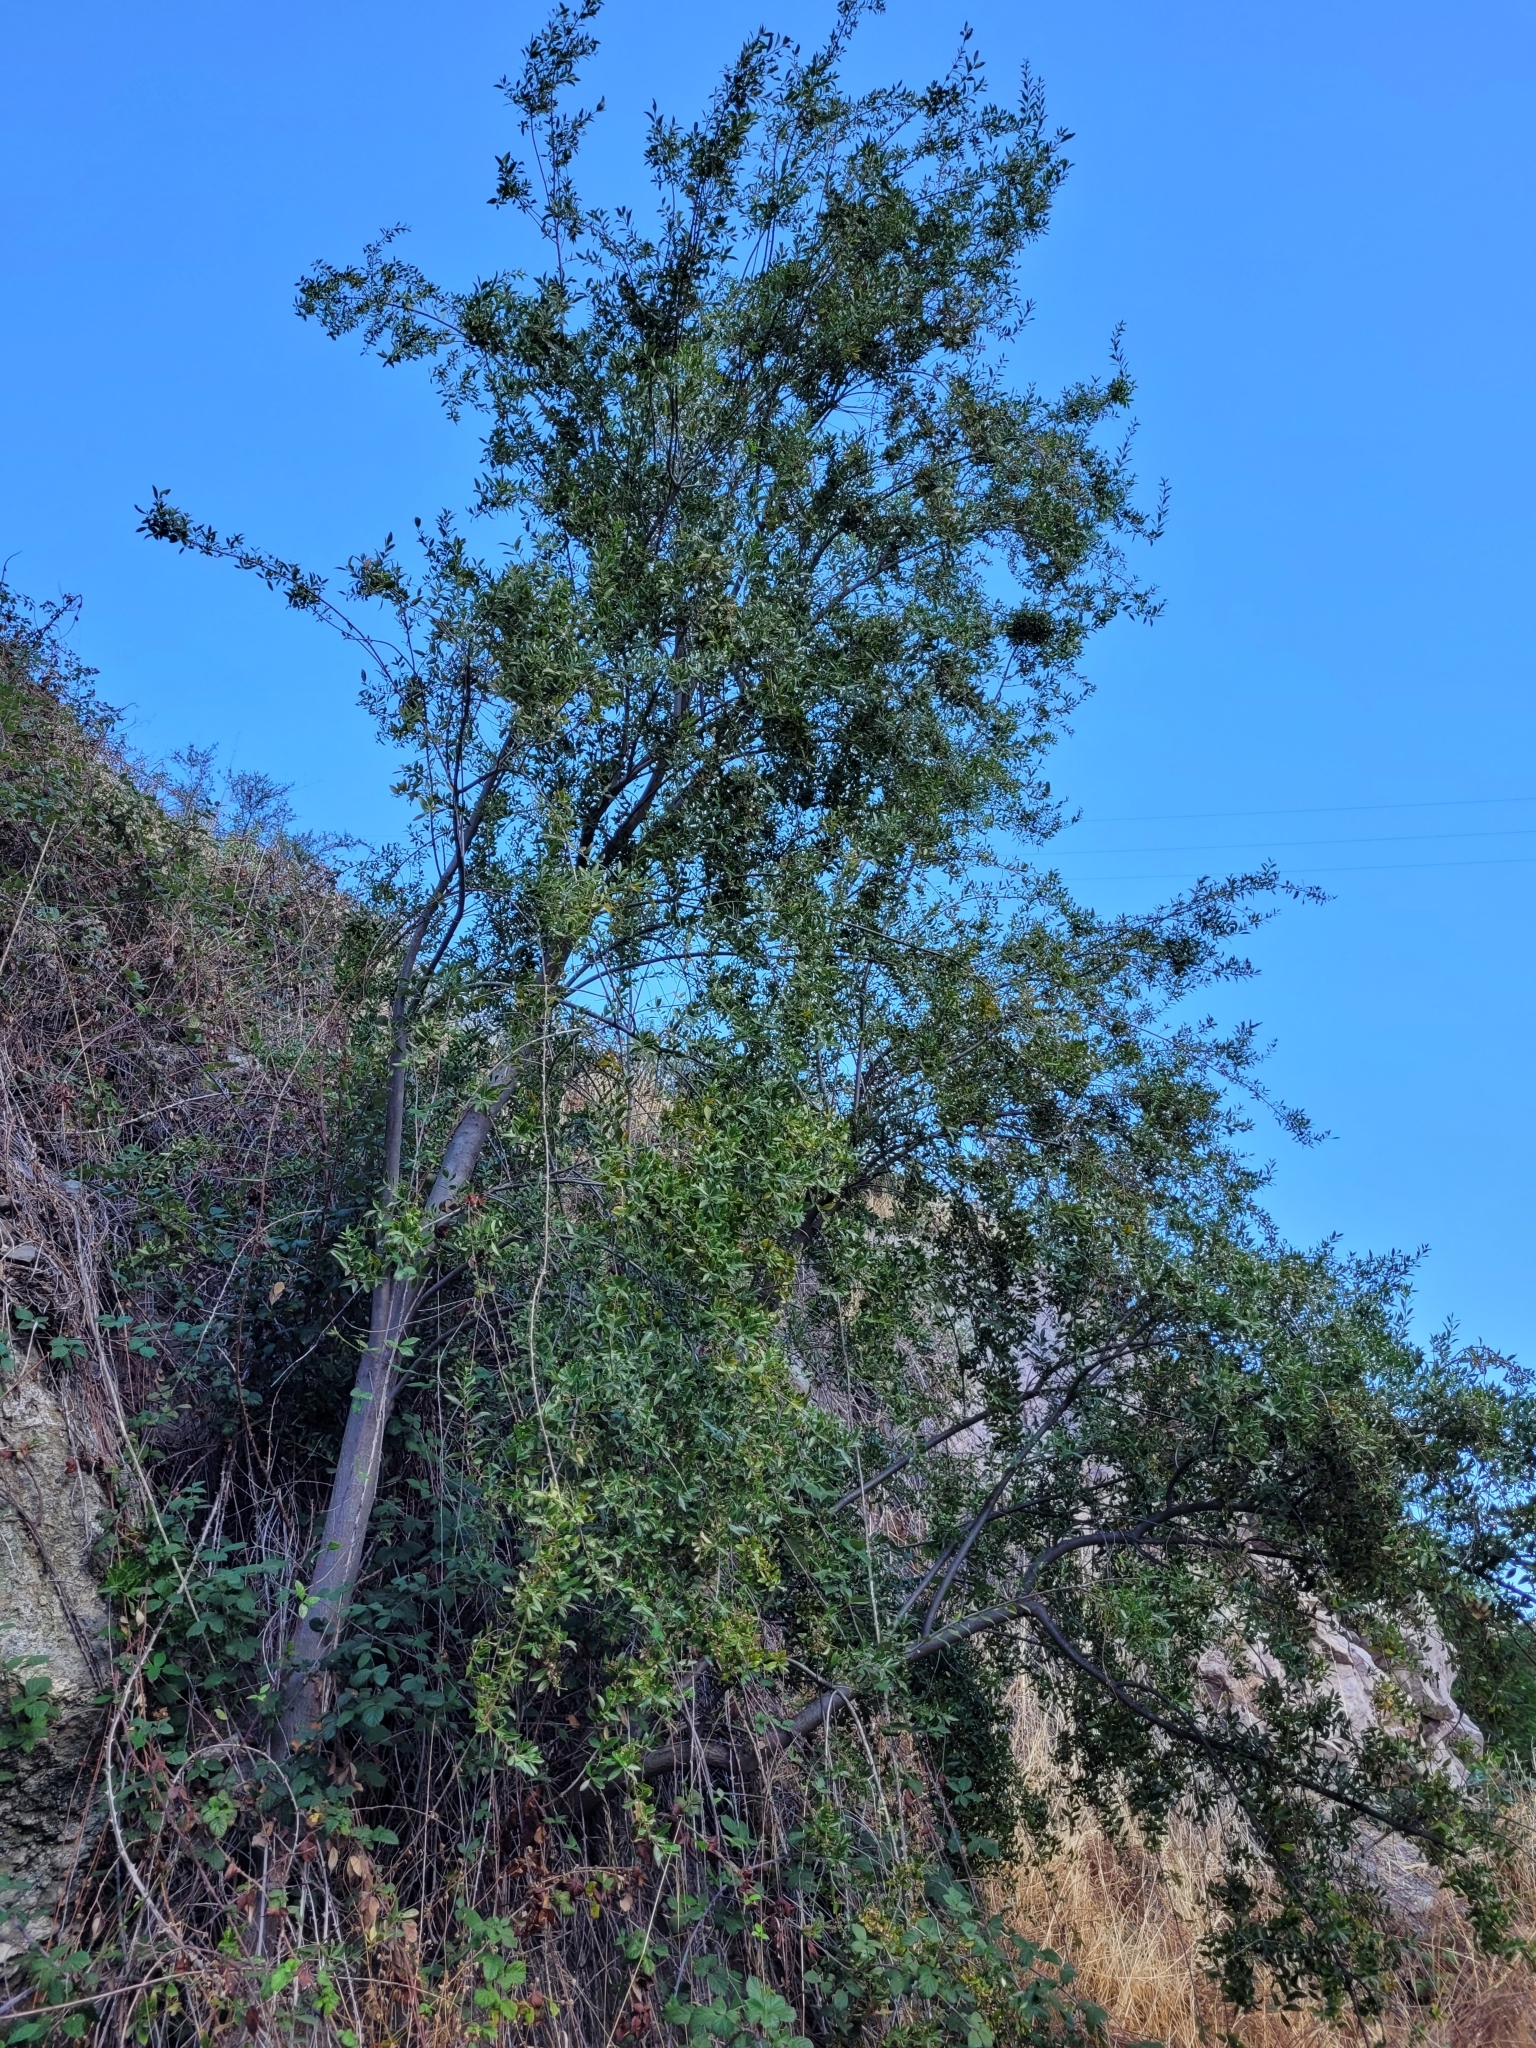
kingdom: Plantae
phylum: Tracheophyta
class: Magnoliopsida
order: Celastrales
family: Celastraceae
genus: Maytenus
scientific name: Maytenus boaria
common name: Mayten
